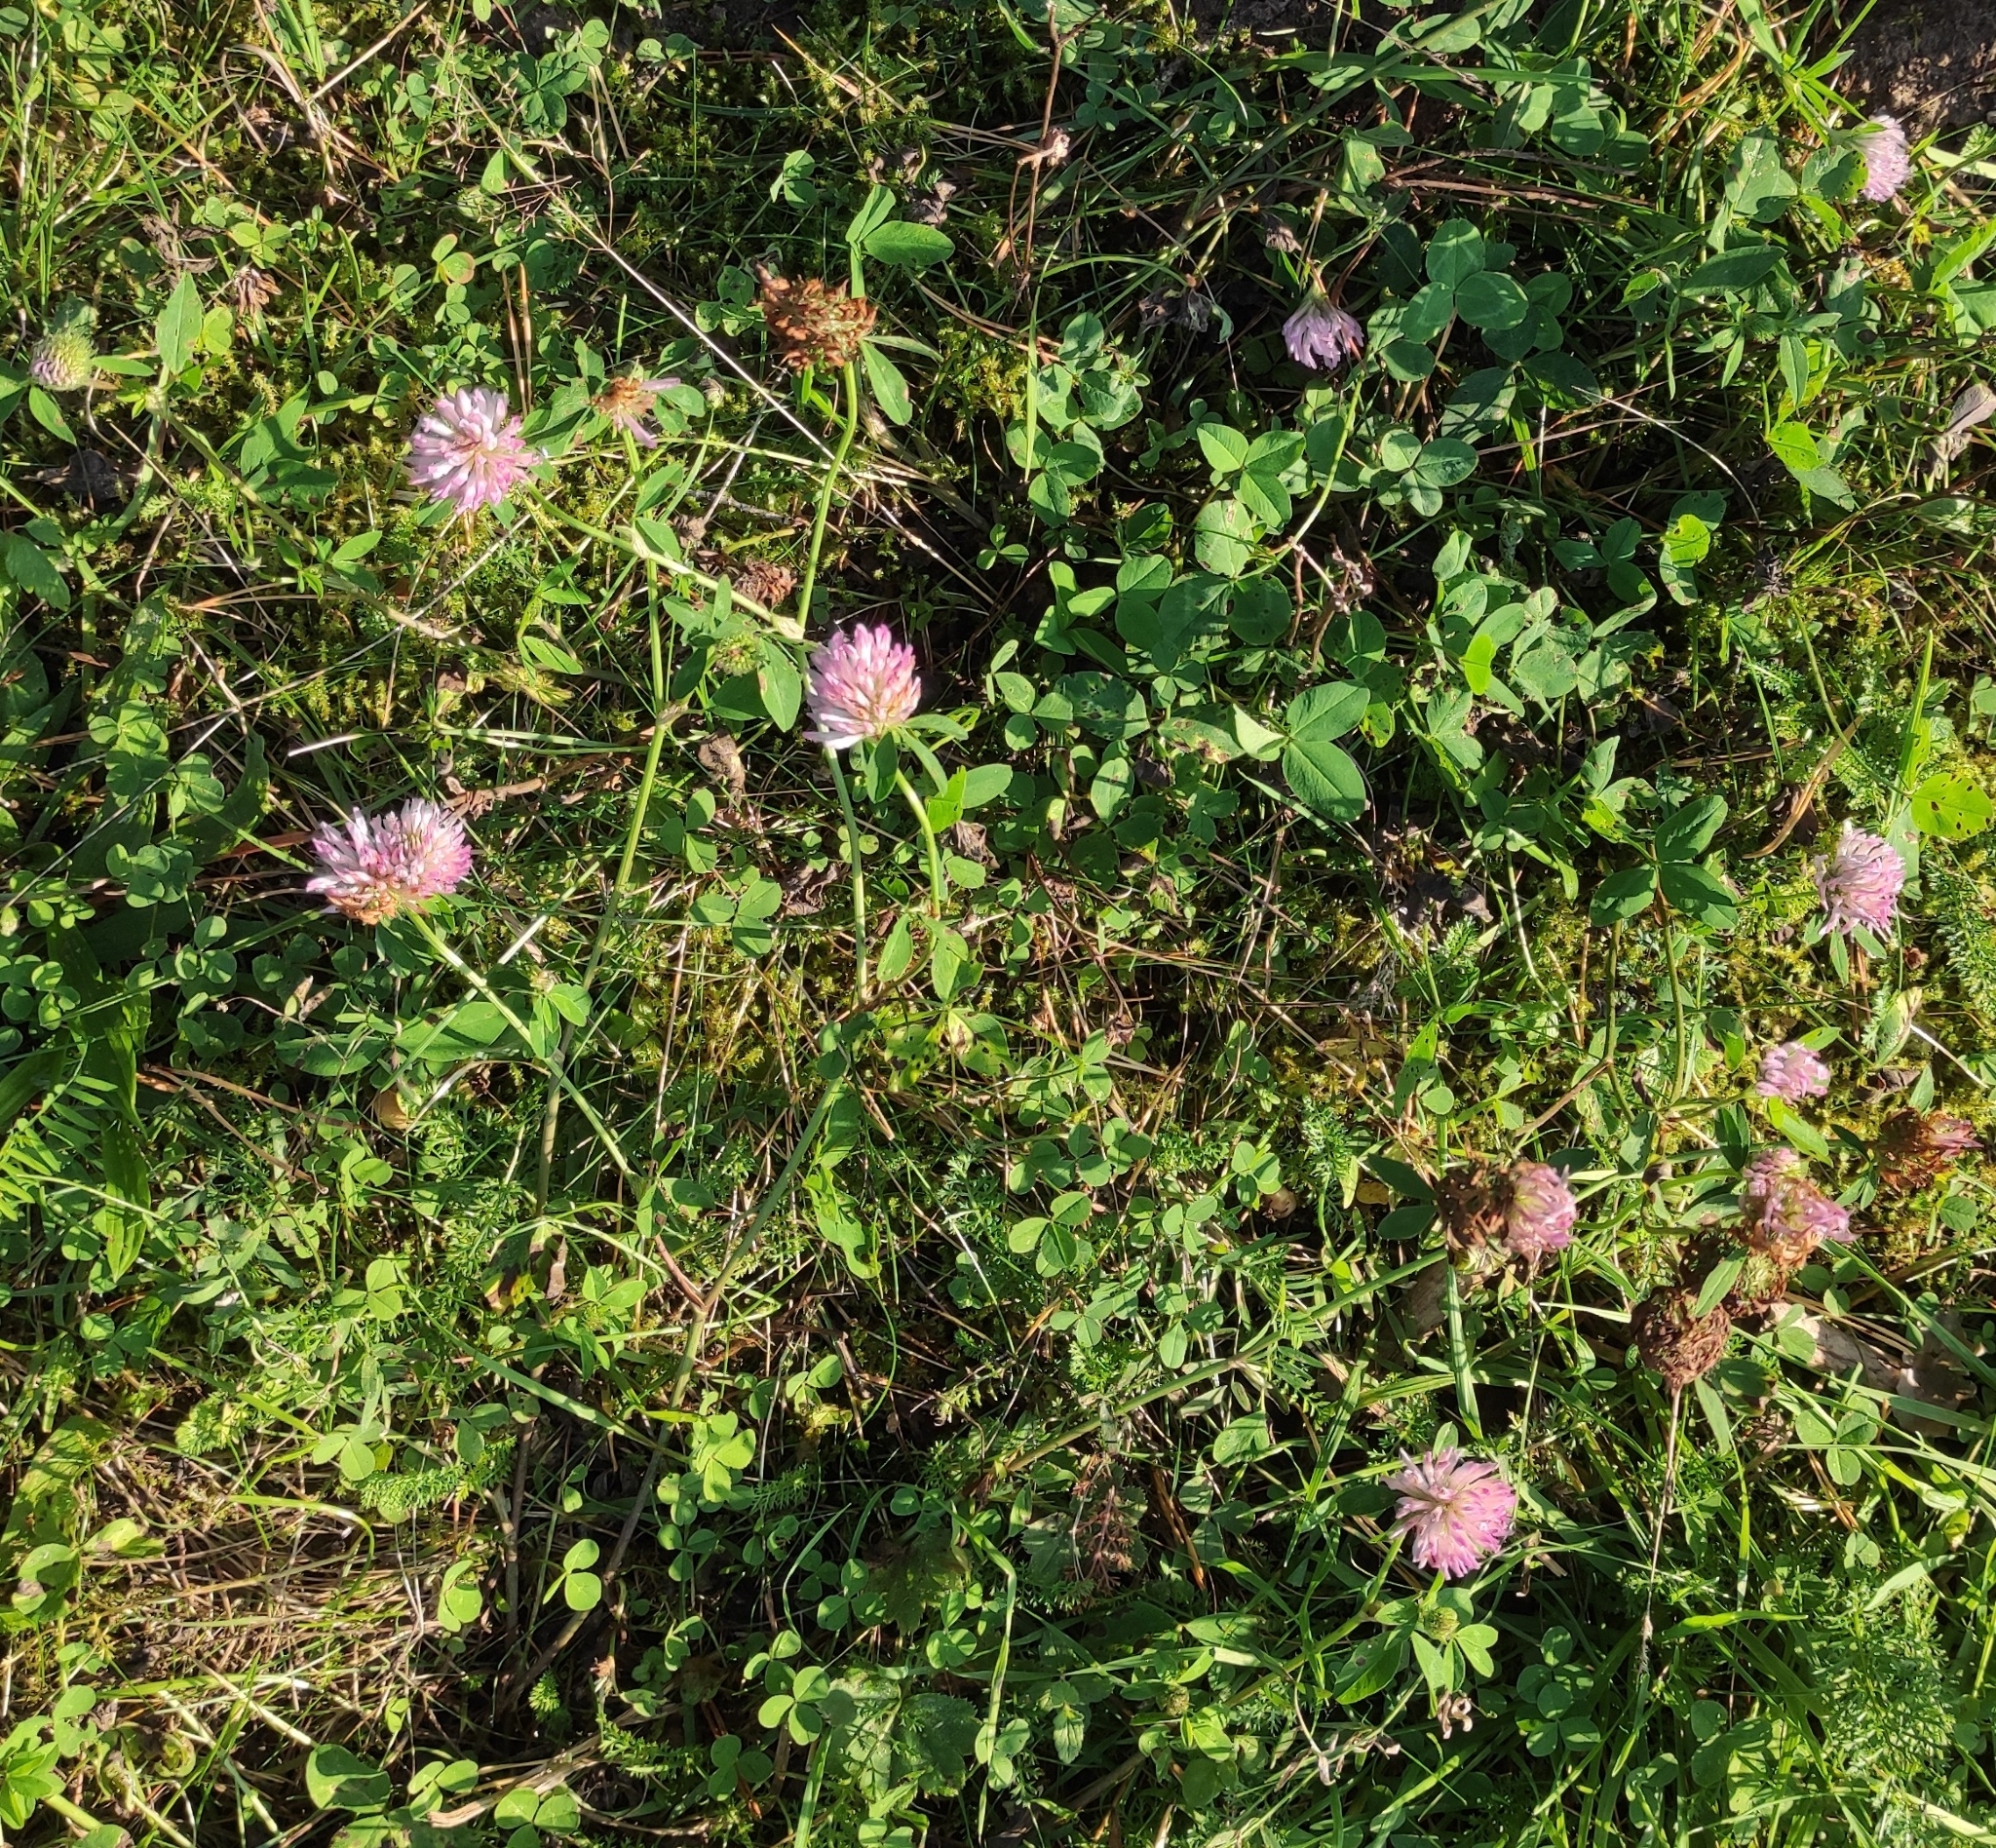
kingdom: Plantae
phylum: Tracheophyta
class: Magnoliopsida
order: Fabales
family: Fabaceae
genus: Trifolium
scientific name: Trifolium pratense
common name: Red clover
